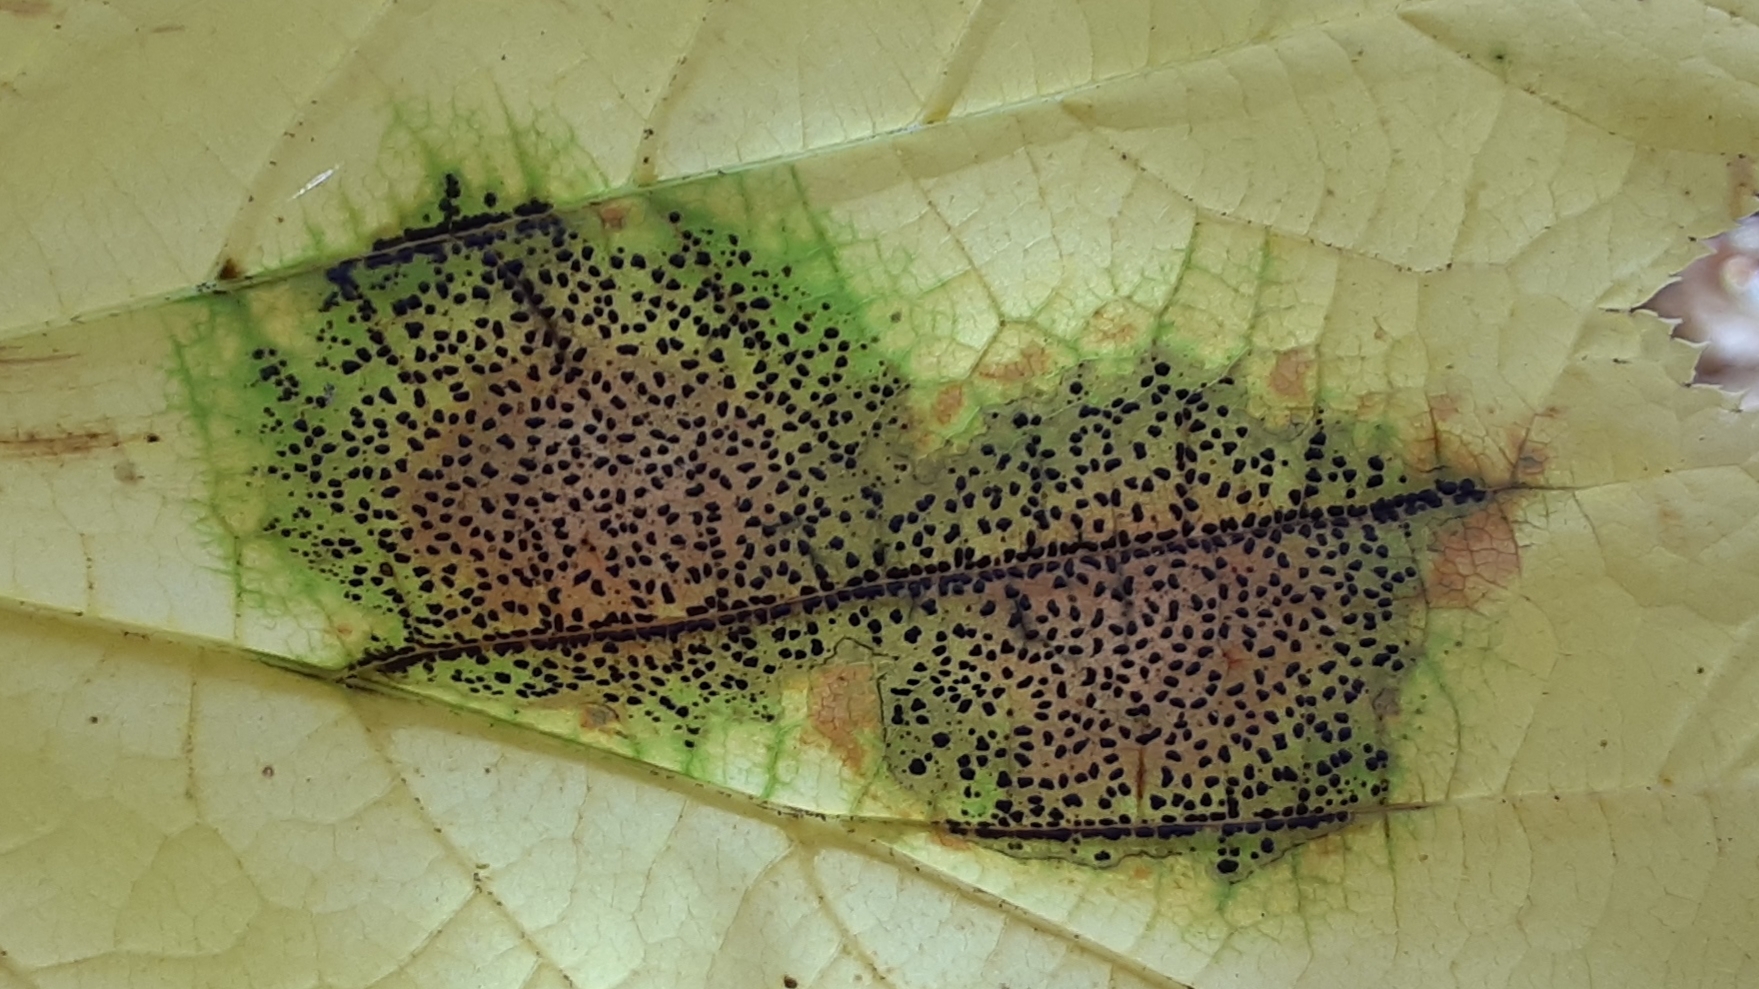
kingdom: Fungi
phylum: Ascomycota
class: Leotiomycetes
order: Rhytismatales
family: Rhytismataceae
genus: Rhytisma
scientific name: Rhytisma punctatum
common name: Speckled tar spot
